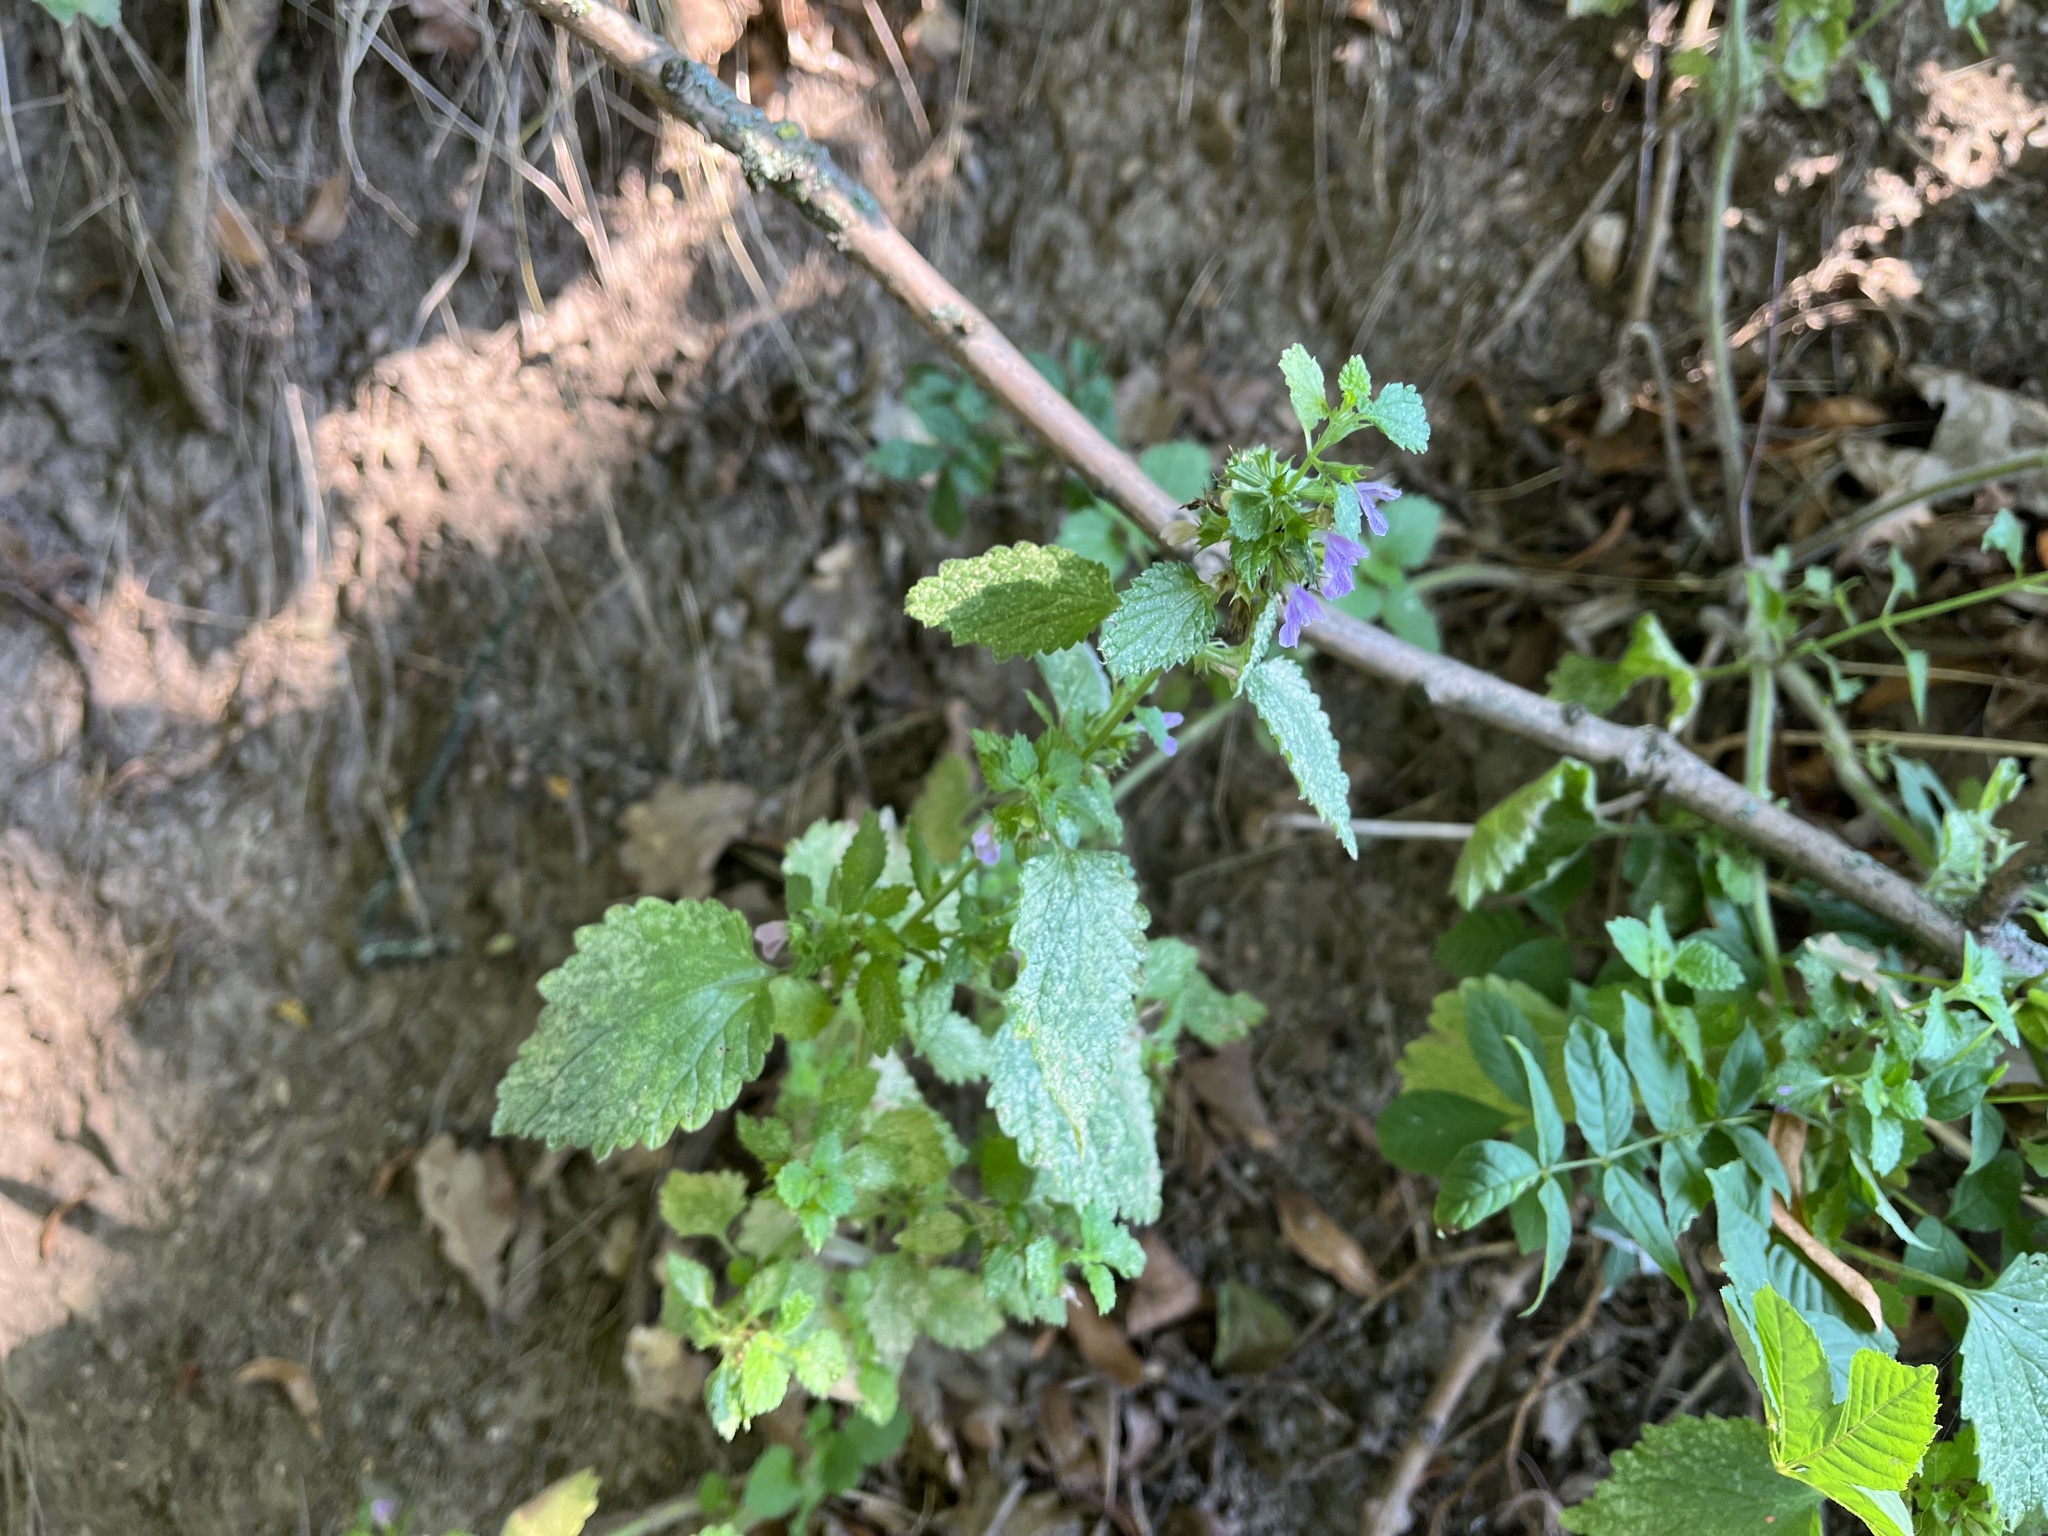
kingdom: Plantae
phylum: Tracheophyta
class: Magnoliopsida
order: Lamiales
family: Lamiaceae
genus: Ballota
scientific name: Ballota nigra
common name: Black horehound
